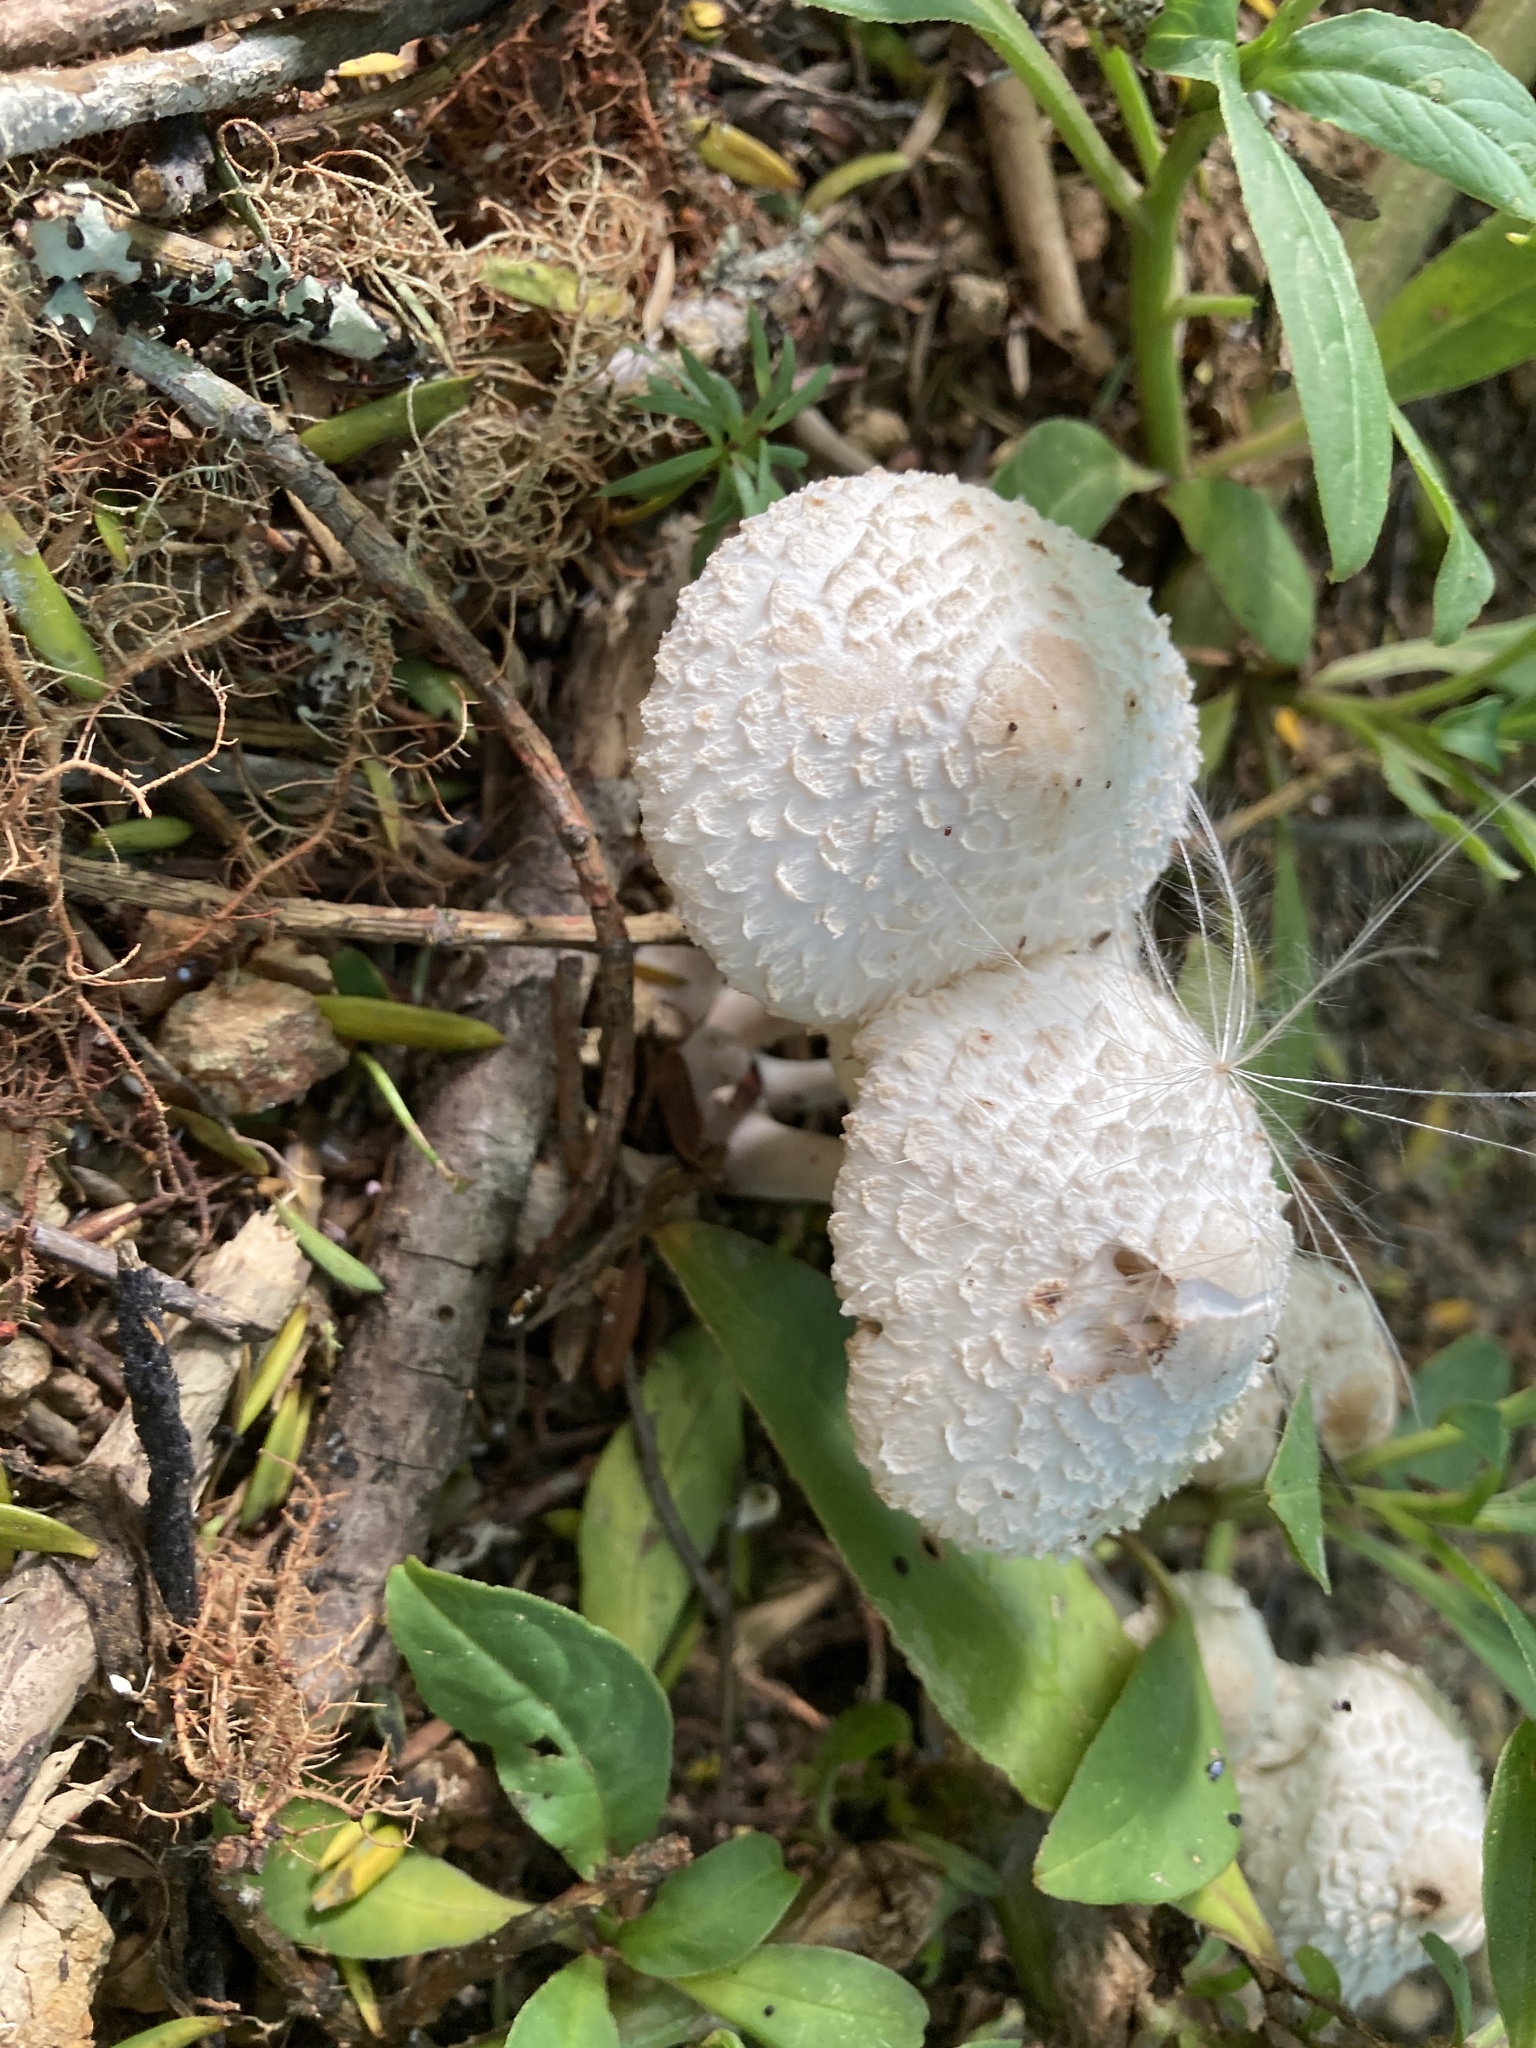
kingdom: Fungi
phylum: Basidiomycota
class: Agaricomycetes
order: Agaricales
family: Agaricaceae
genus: Leucoagaricus
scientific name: Leucoagaricus americanus
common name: Reddening lepiota
